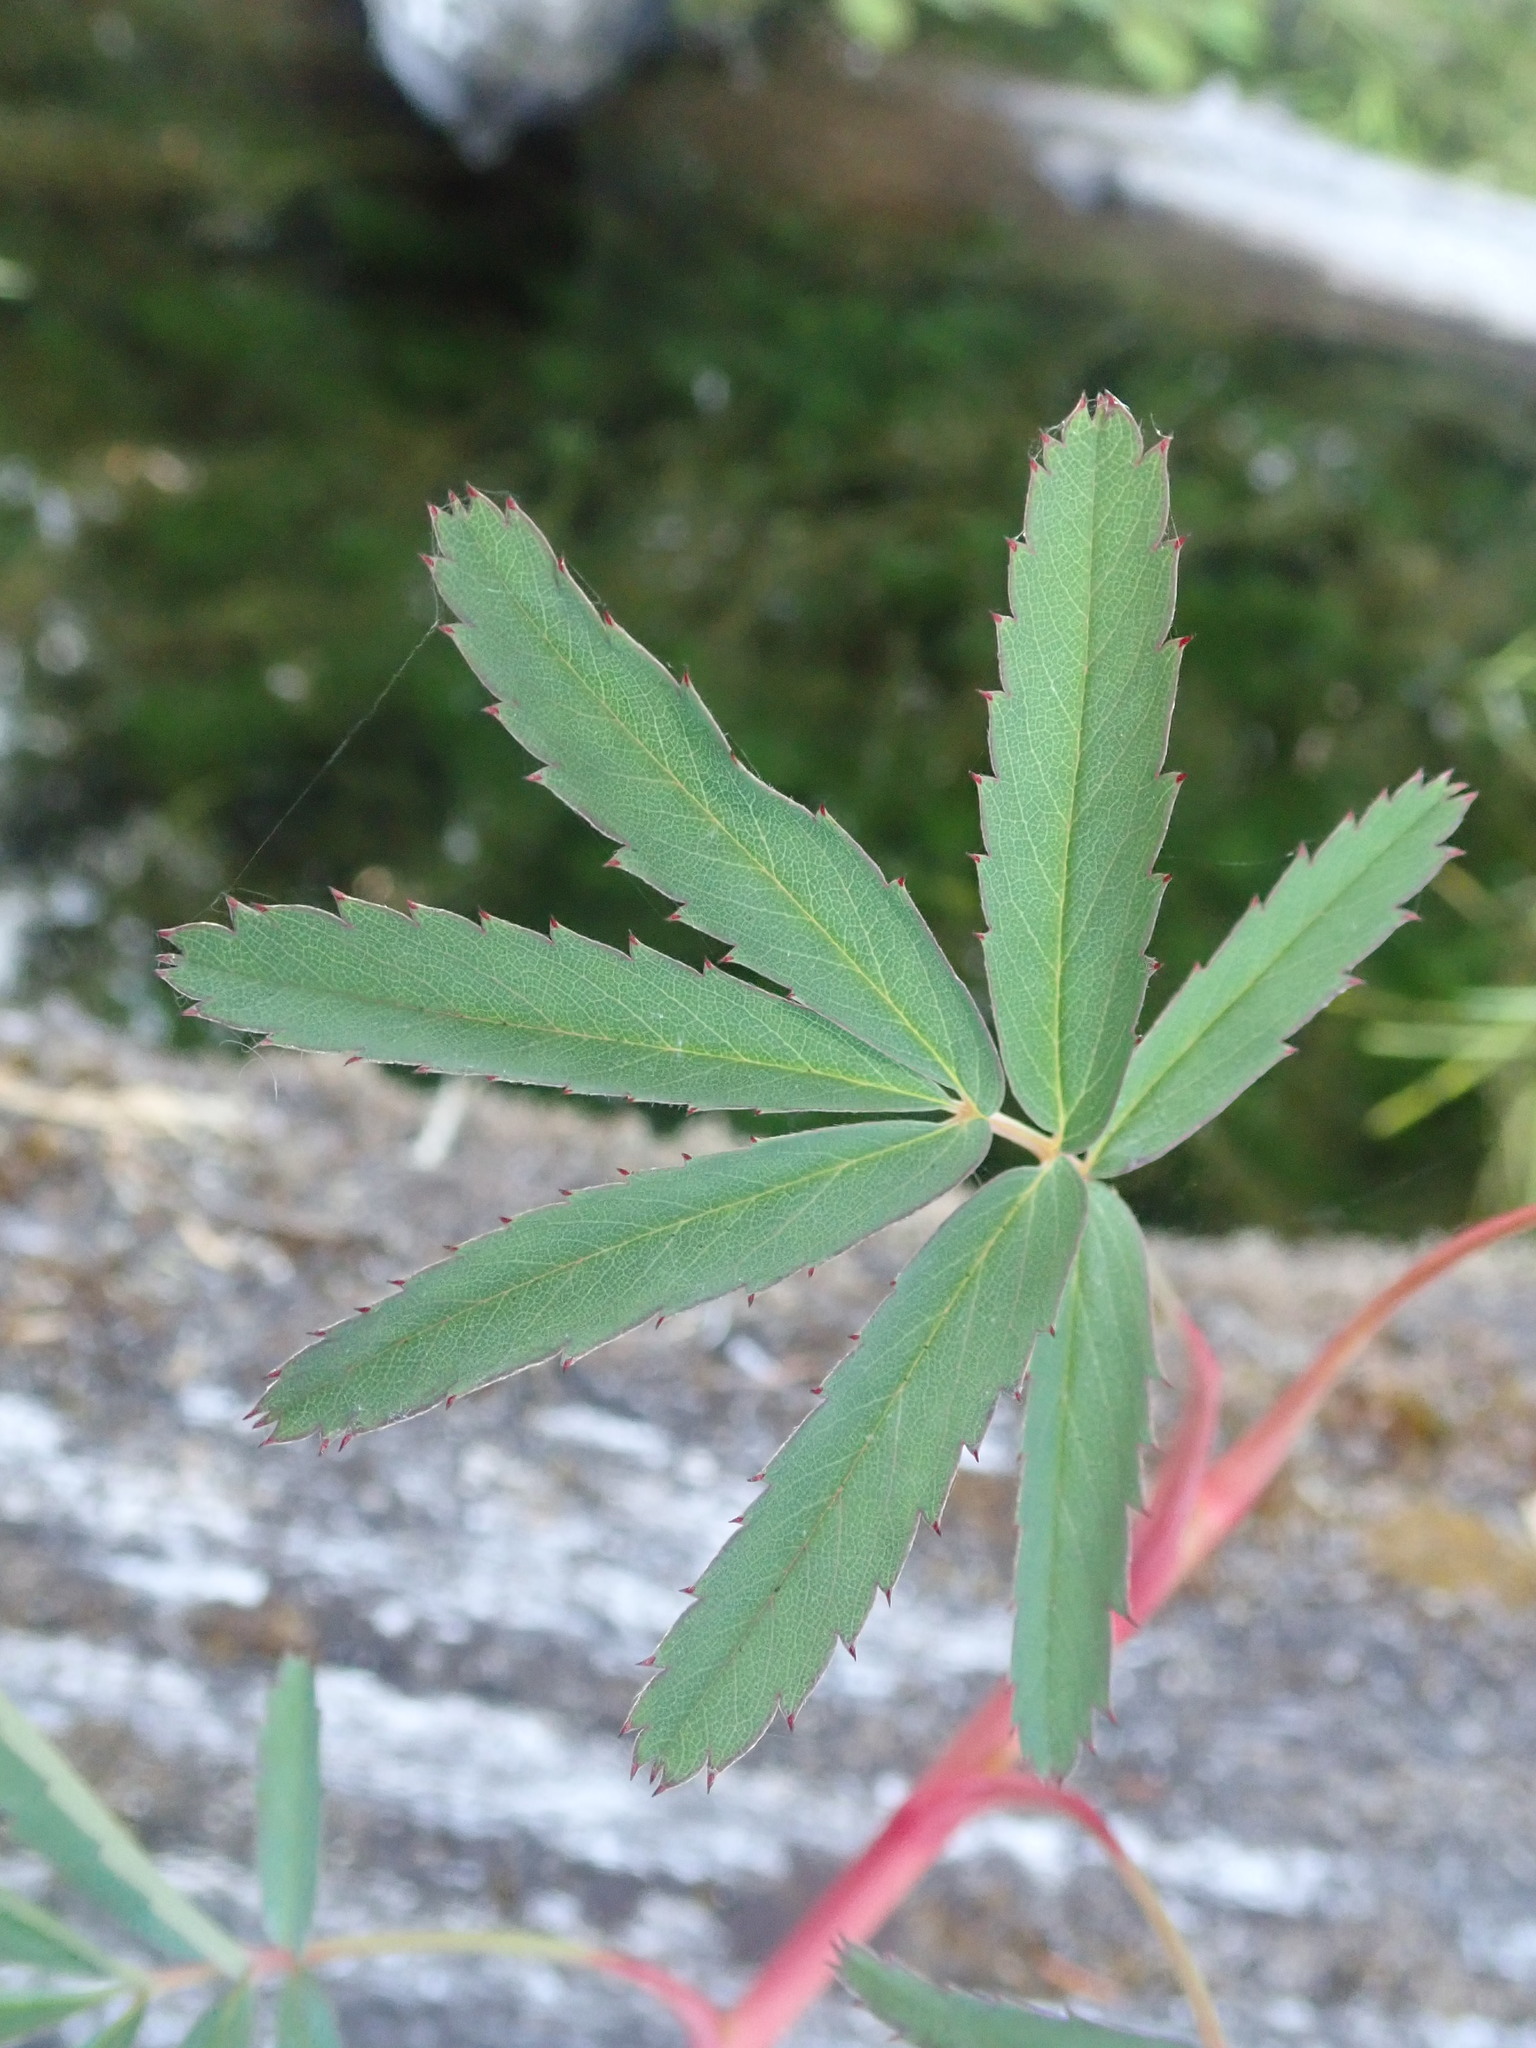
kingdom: Plantae
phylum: Tracheophyta
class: Magnoliopsida
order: Rosales
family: Rosaceae
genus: Comarum
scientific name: Comarum palustre
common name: Marsh cinquefoil
